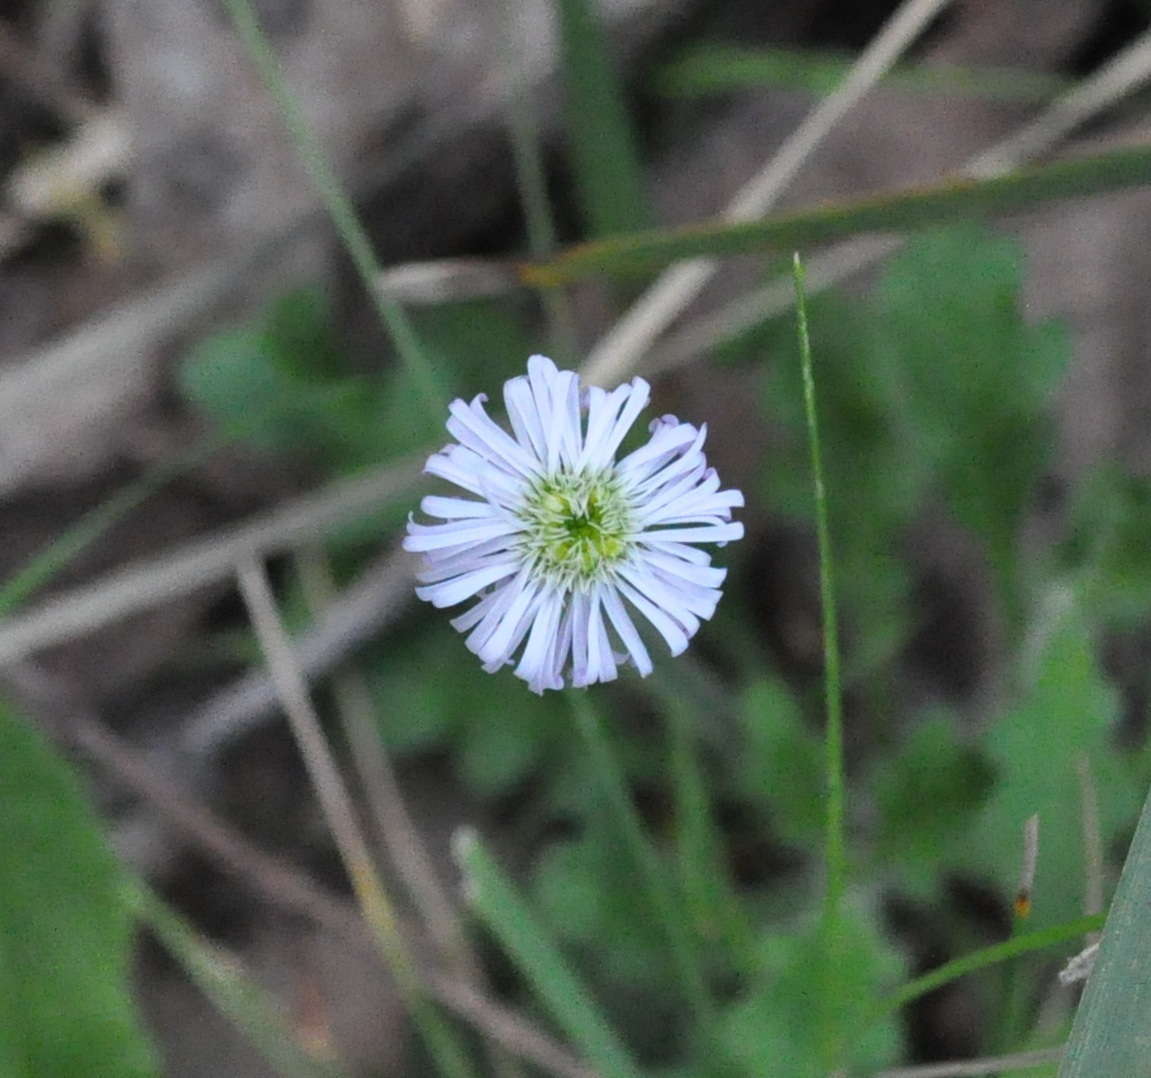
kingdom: Plantae
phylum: Tracheophyta
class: Magnoliopsida
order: Asterales
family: Asteraceae
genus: Lagenophora
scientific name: Lagenophora stipitata
